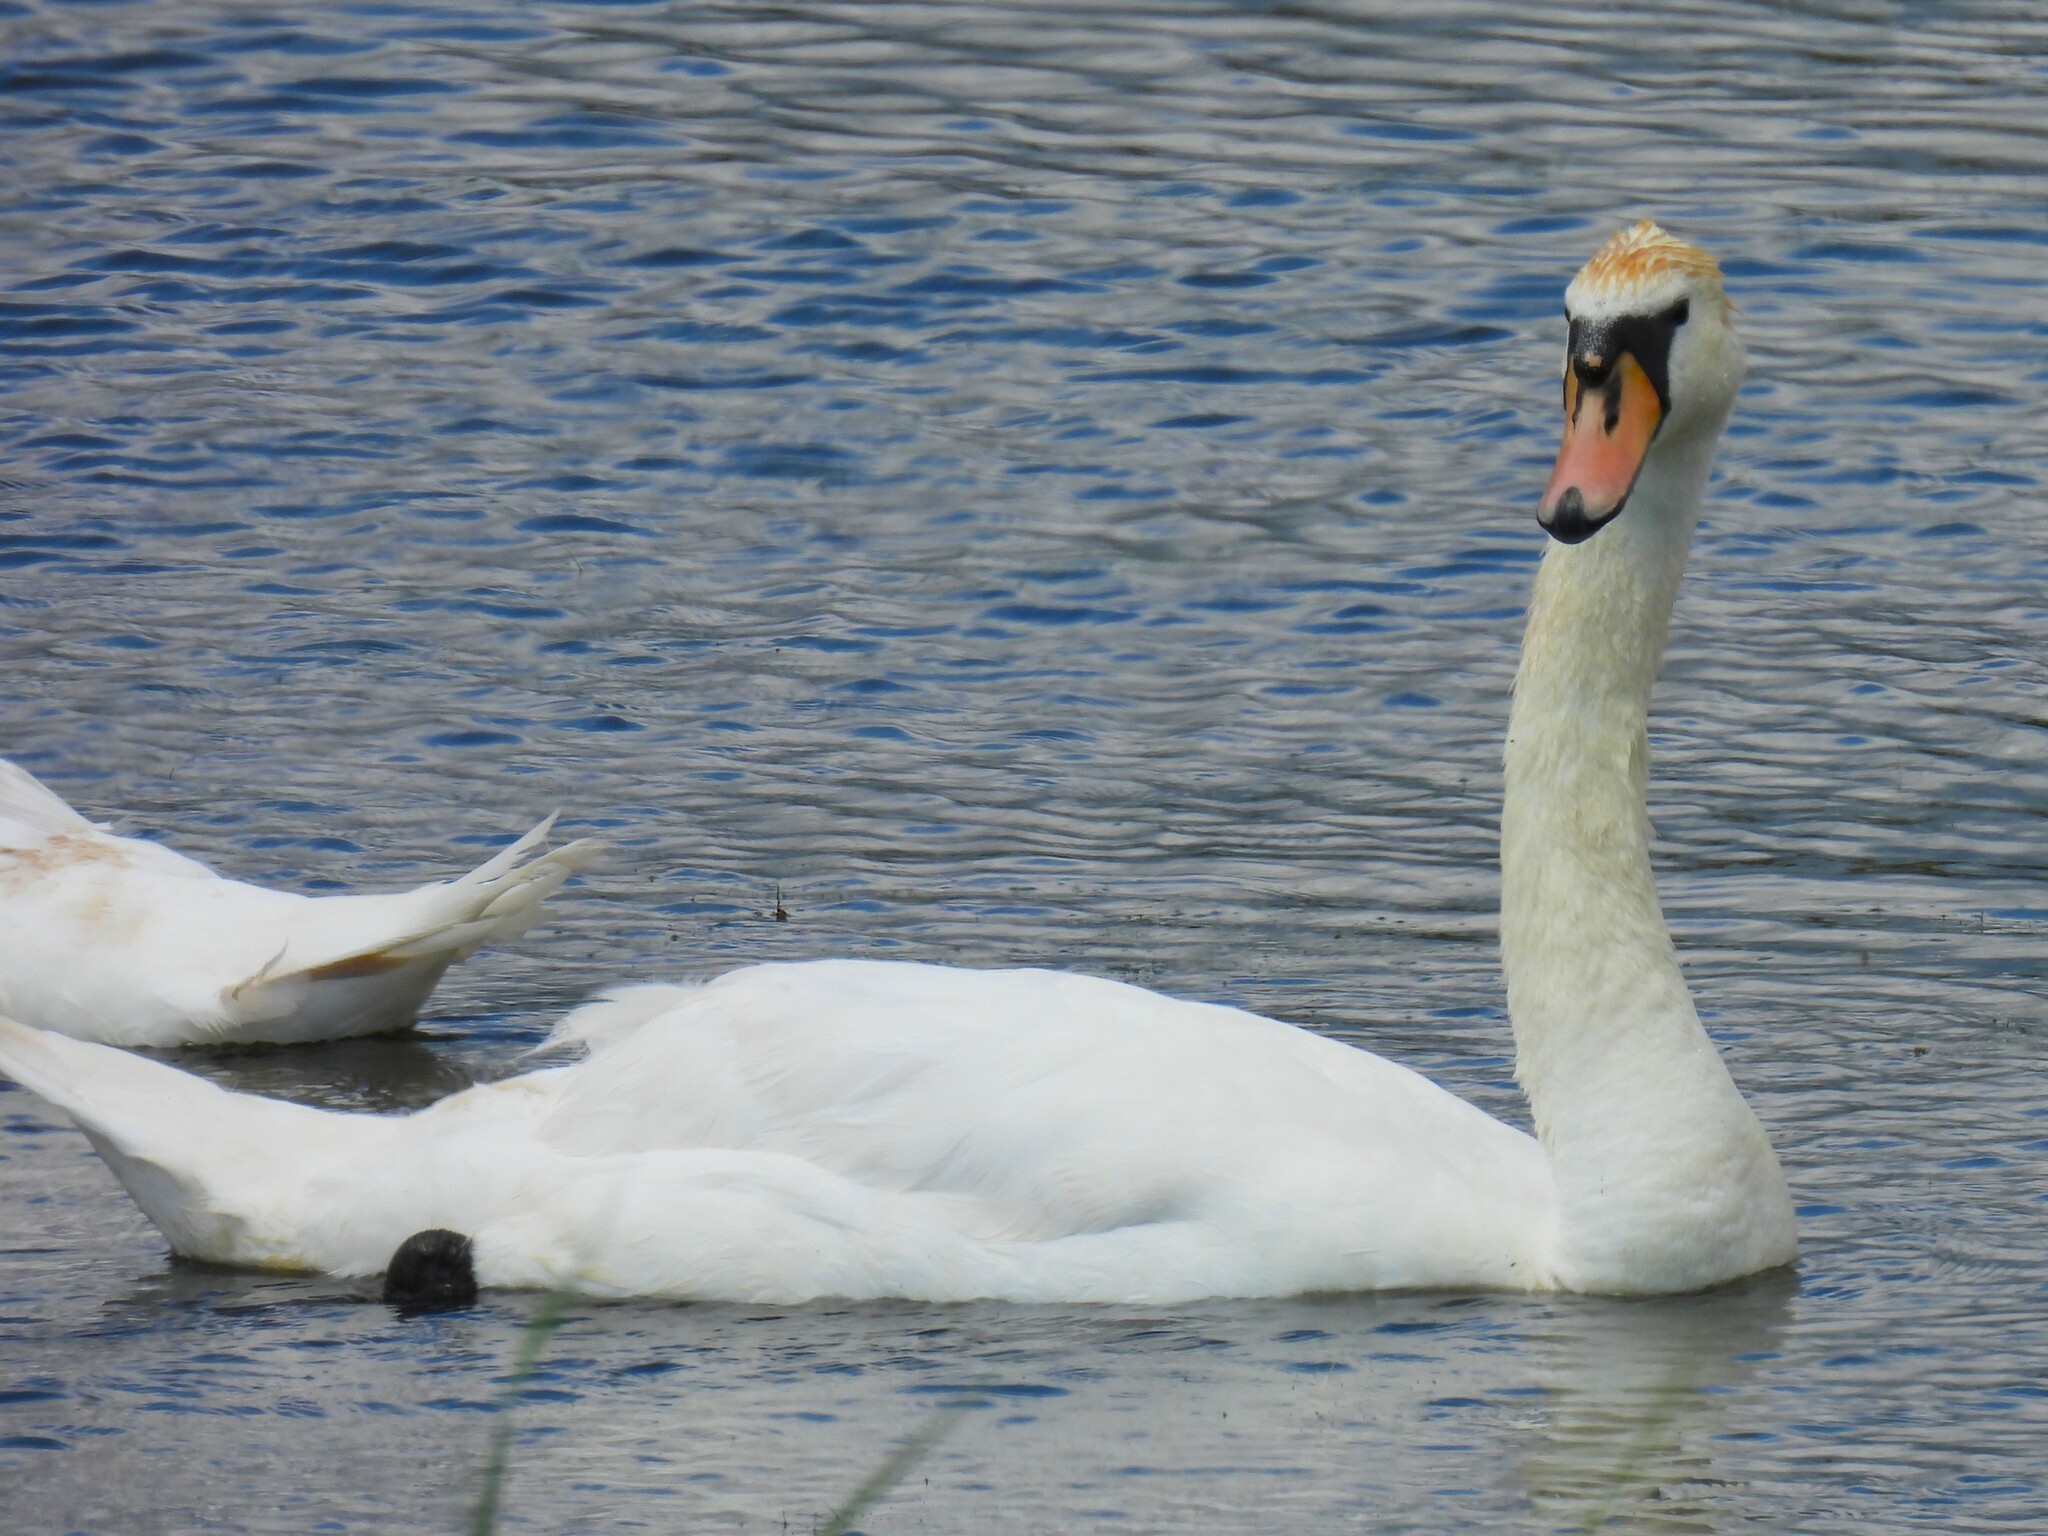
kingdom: Animalia
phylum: Chordata
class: Aves
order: Anseriformes
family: Anatidae
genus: Cygnus
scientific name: Cygnus olor
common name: Mute swan
